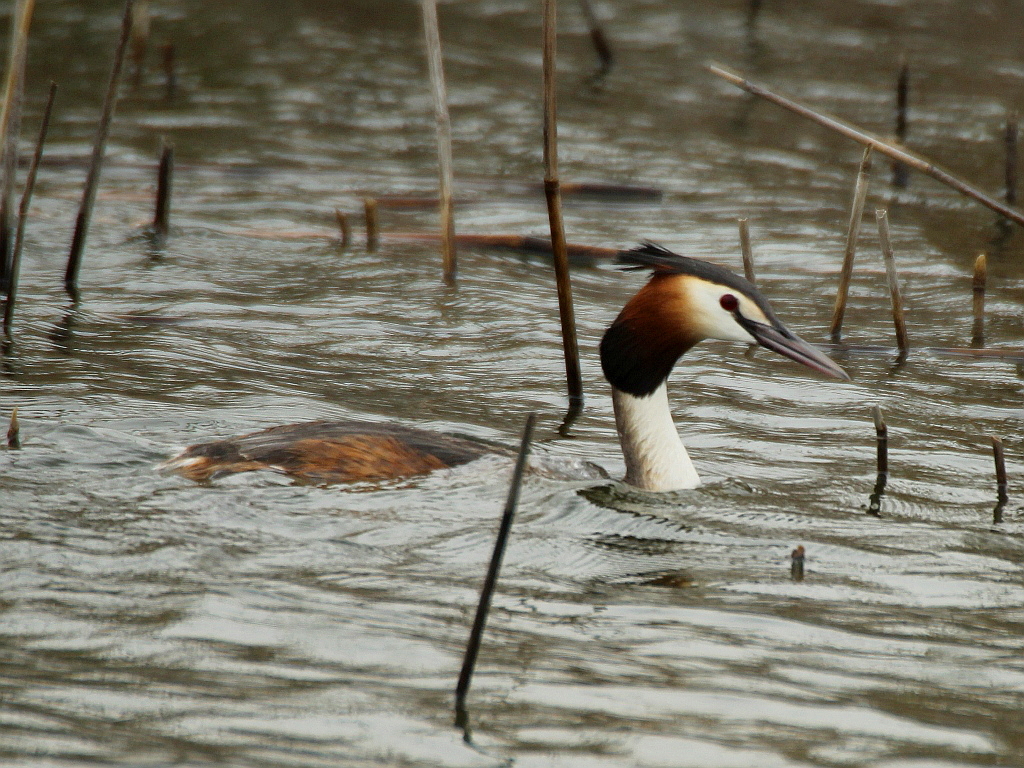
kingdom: Animalia
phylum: Chordata
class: Aves
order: Podicipediformes
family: Podicipedidae
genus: Podiceps
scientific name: Podiceps cristatus
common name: Great crested grebe
